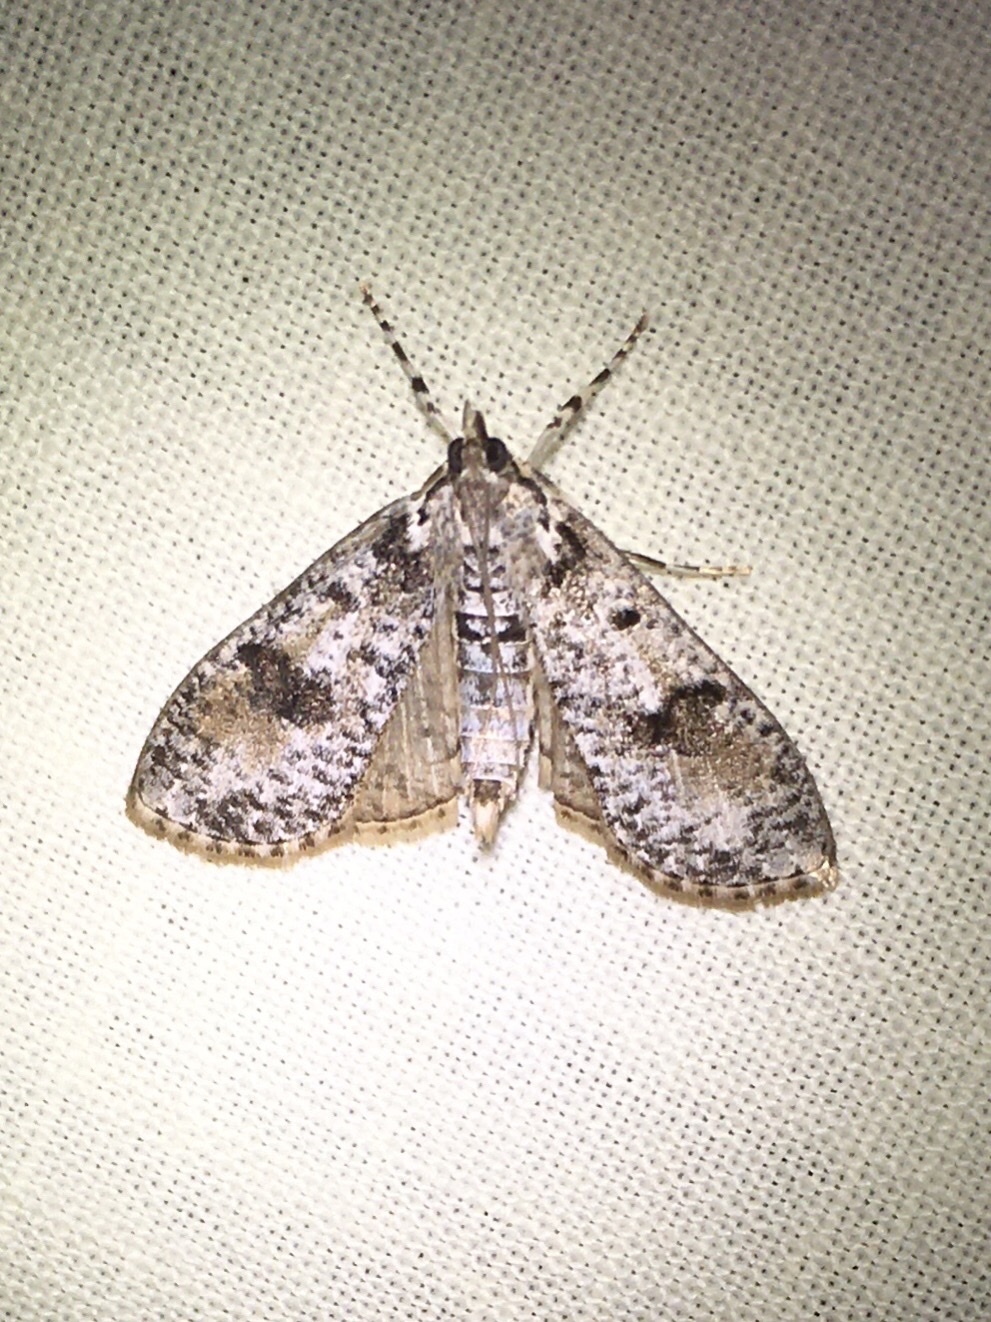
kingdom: Animalia
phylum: Arthropoda
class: Insecta
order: Lepidoptera
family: Crambidae
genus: Palpita
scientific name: Palpita magniferalis
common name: Splendid palpita moth
